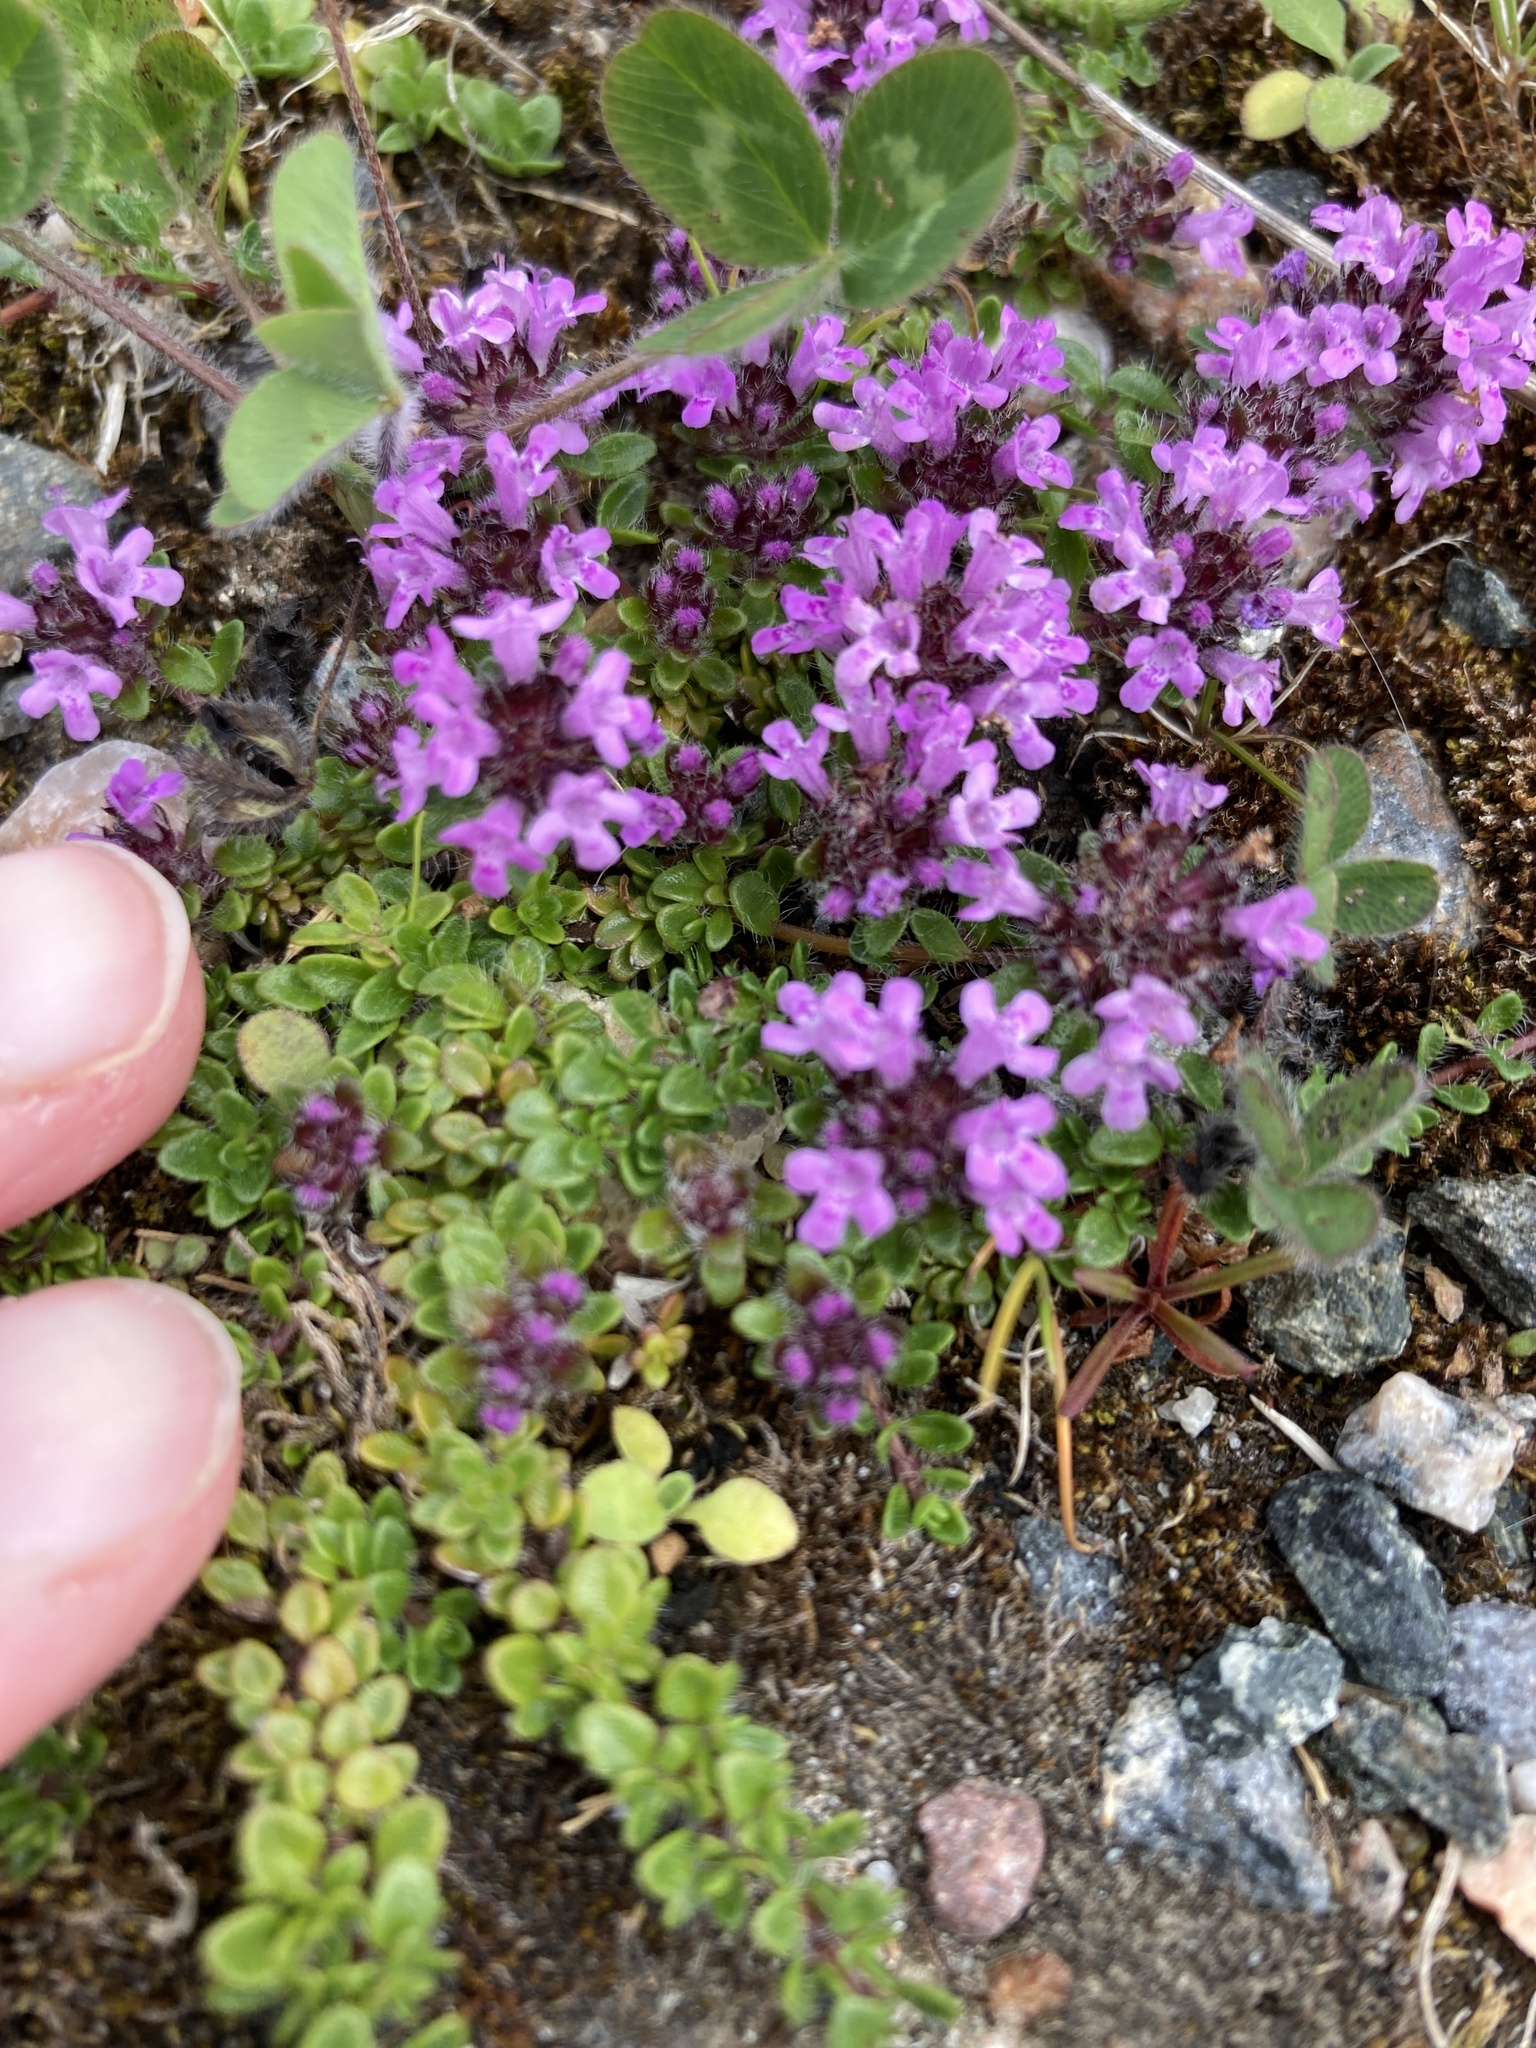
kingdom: Plantae
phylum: Tracheophyta
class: Magnoliopsida
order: Lamiales
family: Lamiaceae
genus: Thymus
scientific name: Thymus praecox
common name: Wild thyme
